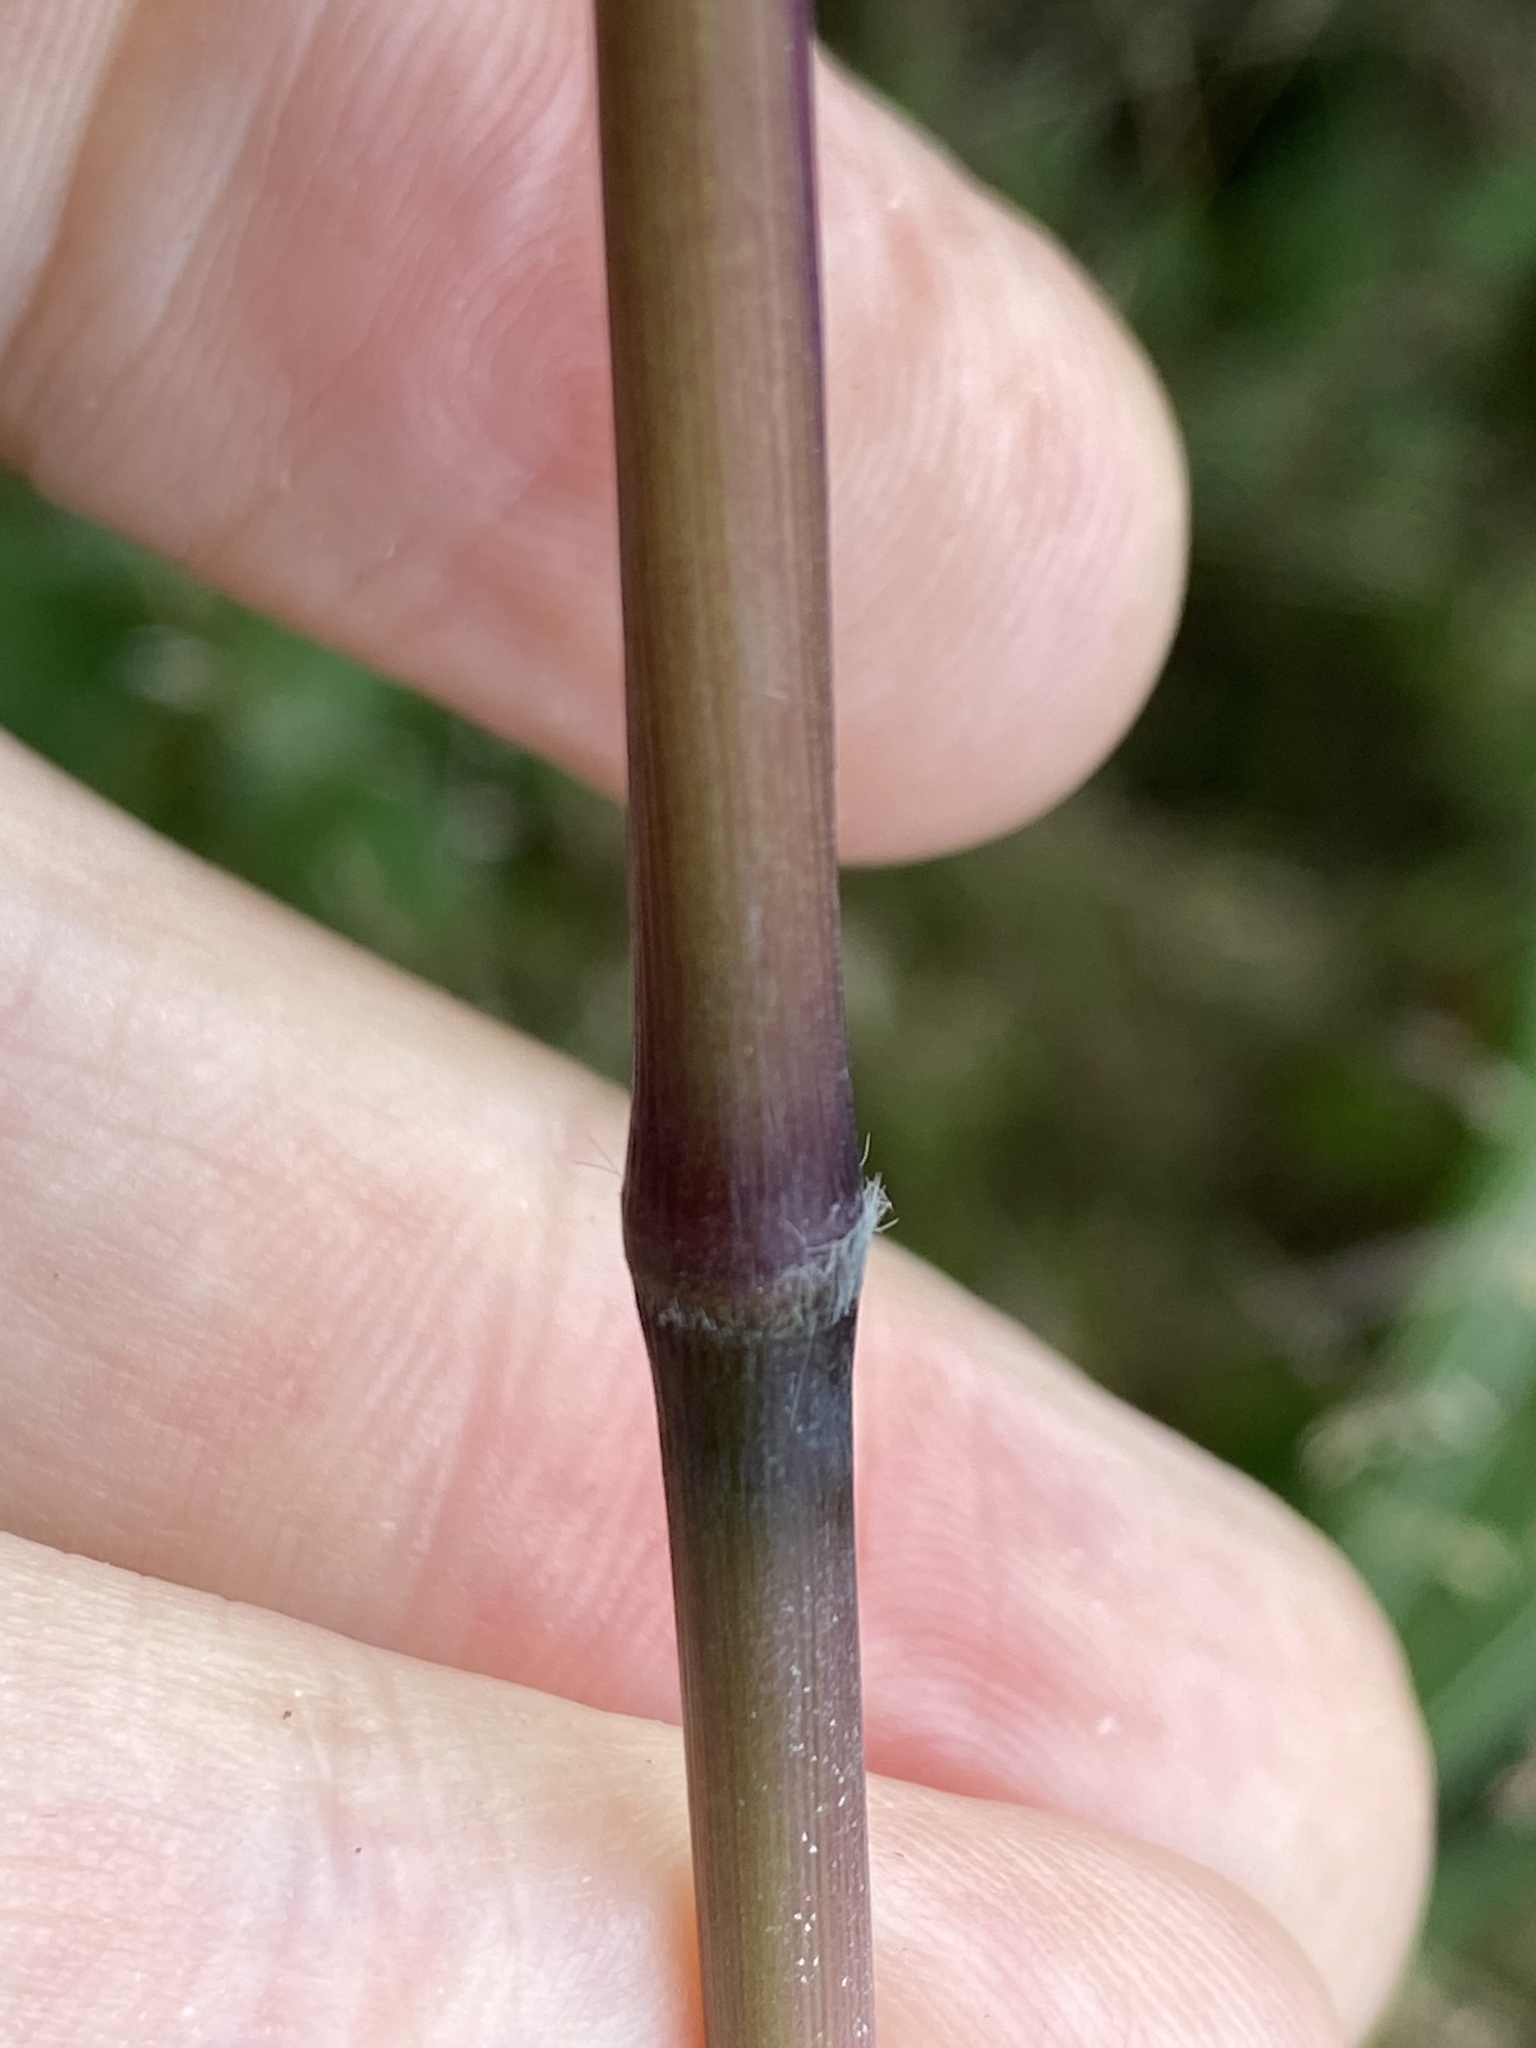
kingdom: Plantae
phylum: Tracheophyta
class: Liliopsida
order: Poales
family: Poaceae
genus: Erianthus
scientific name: Erianthus alopecuroides
